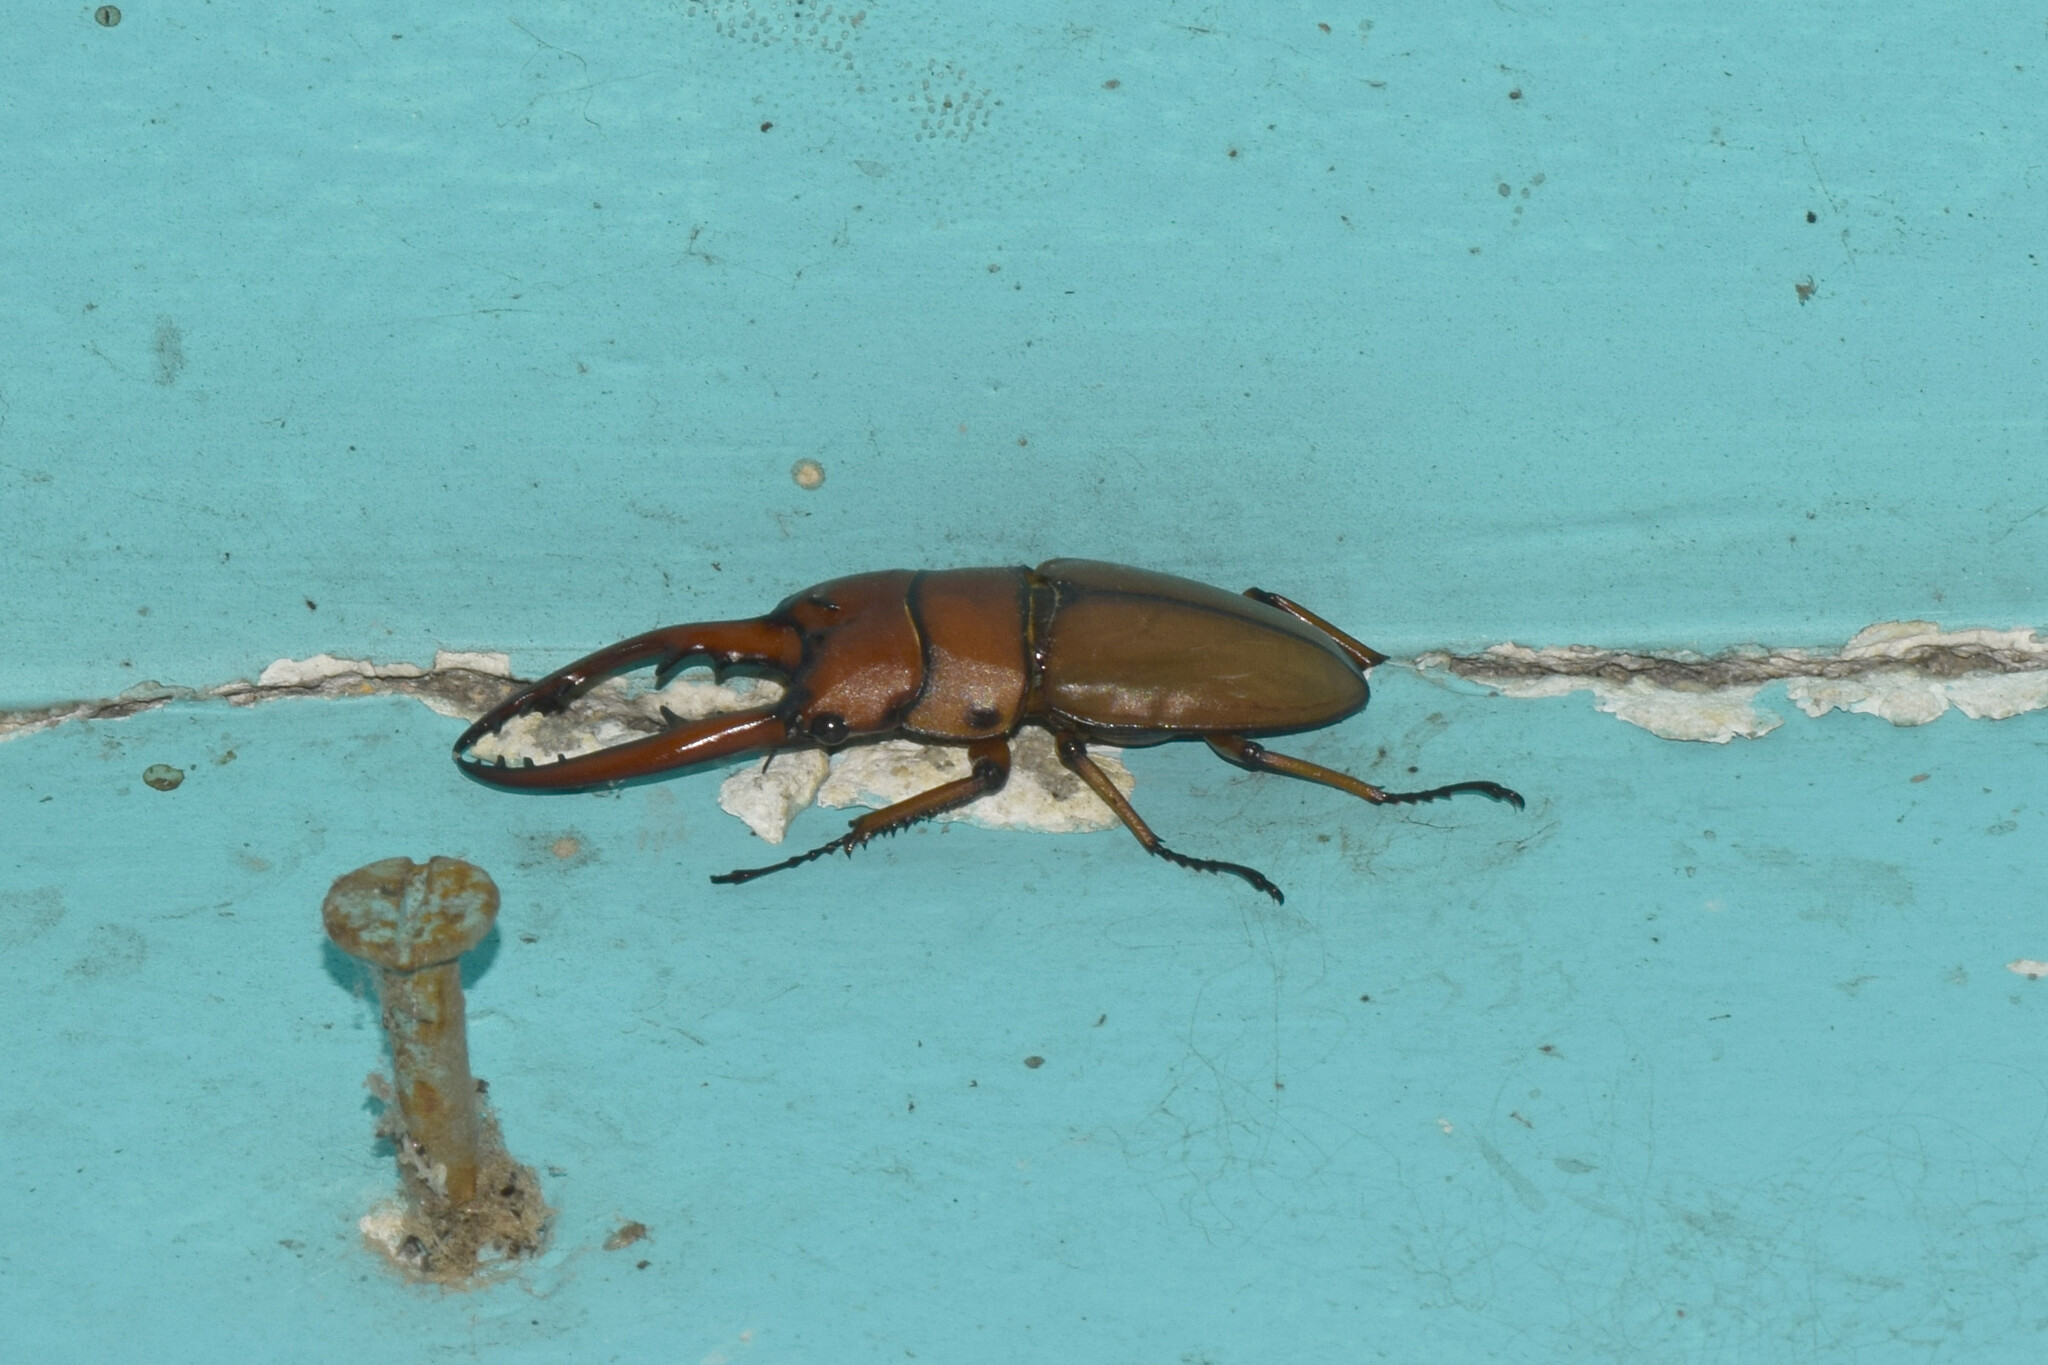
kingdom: Animalia
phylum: Arthropoda
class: Insecta
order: Coleoptera
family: Lucanidae
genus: Prosopocoilus
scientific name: Prosopocoilus astacoides
